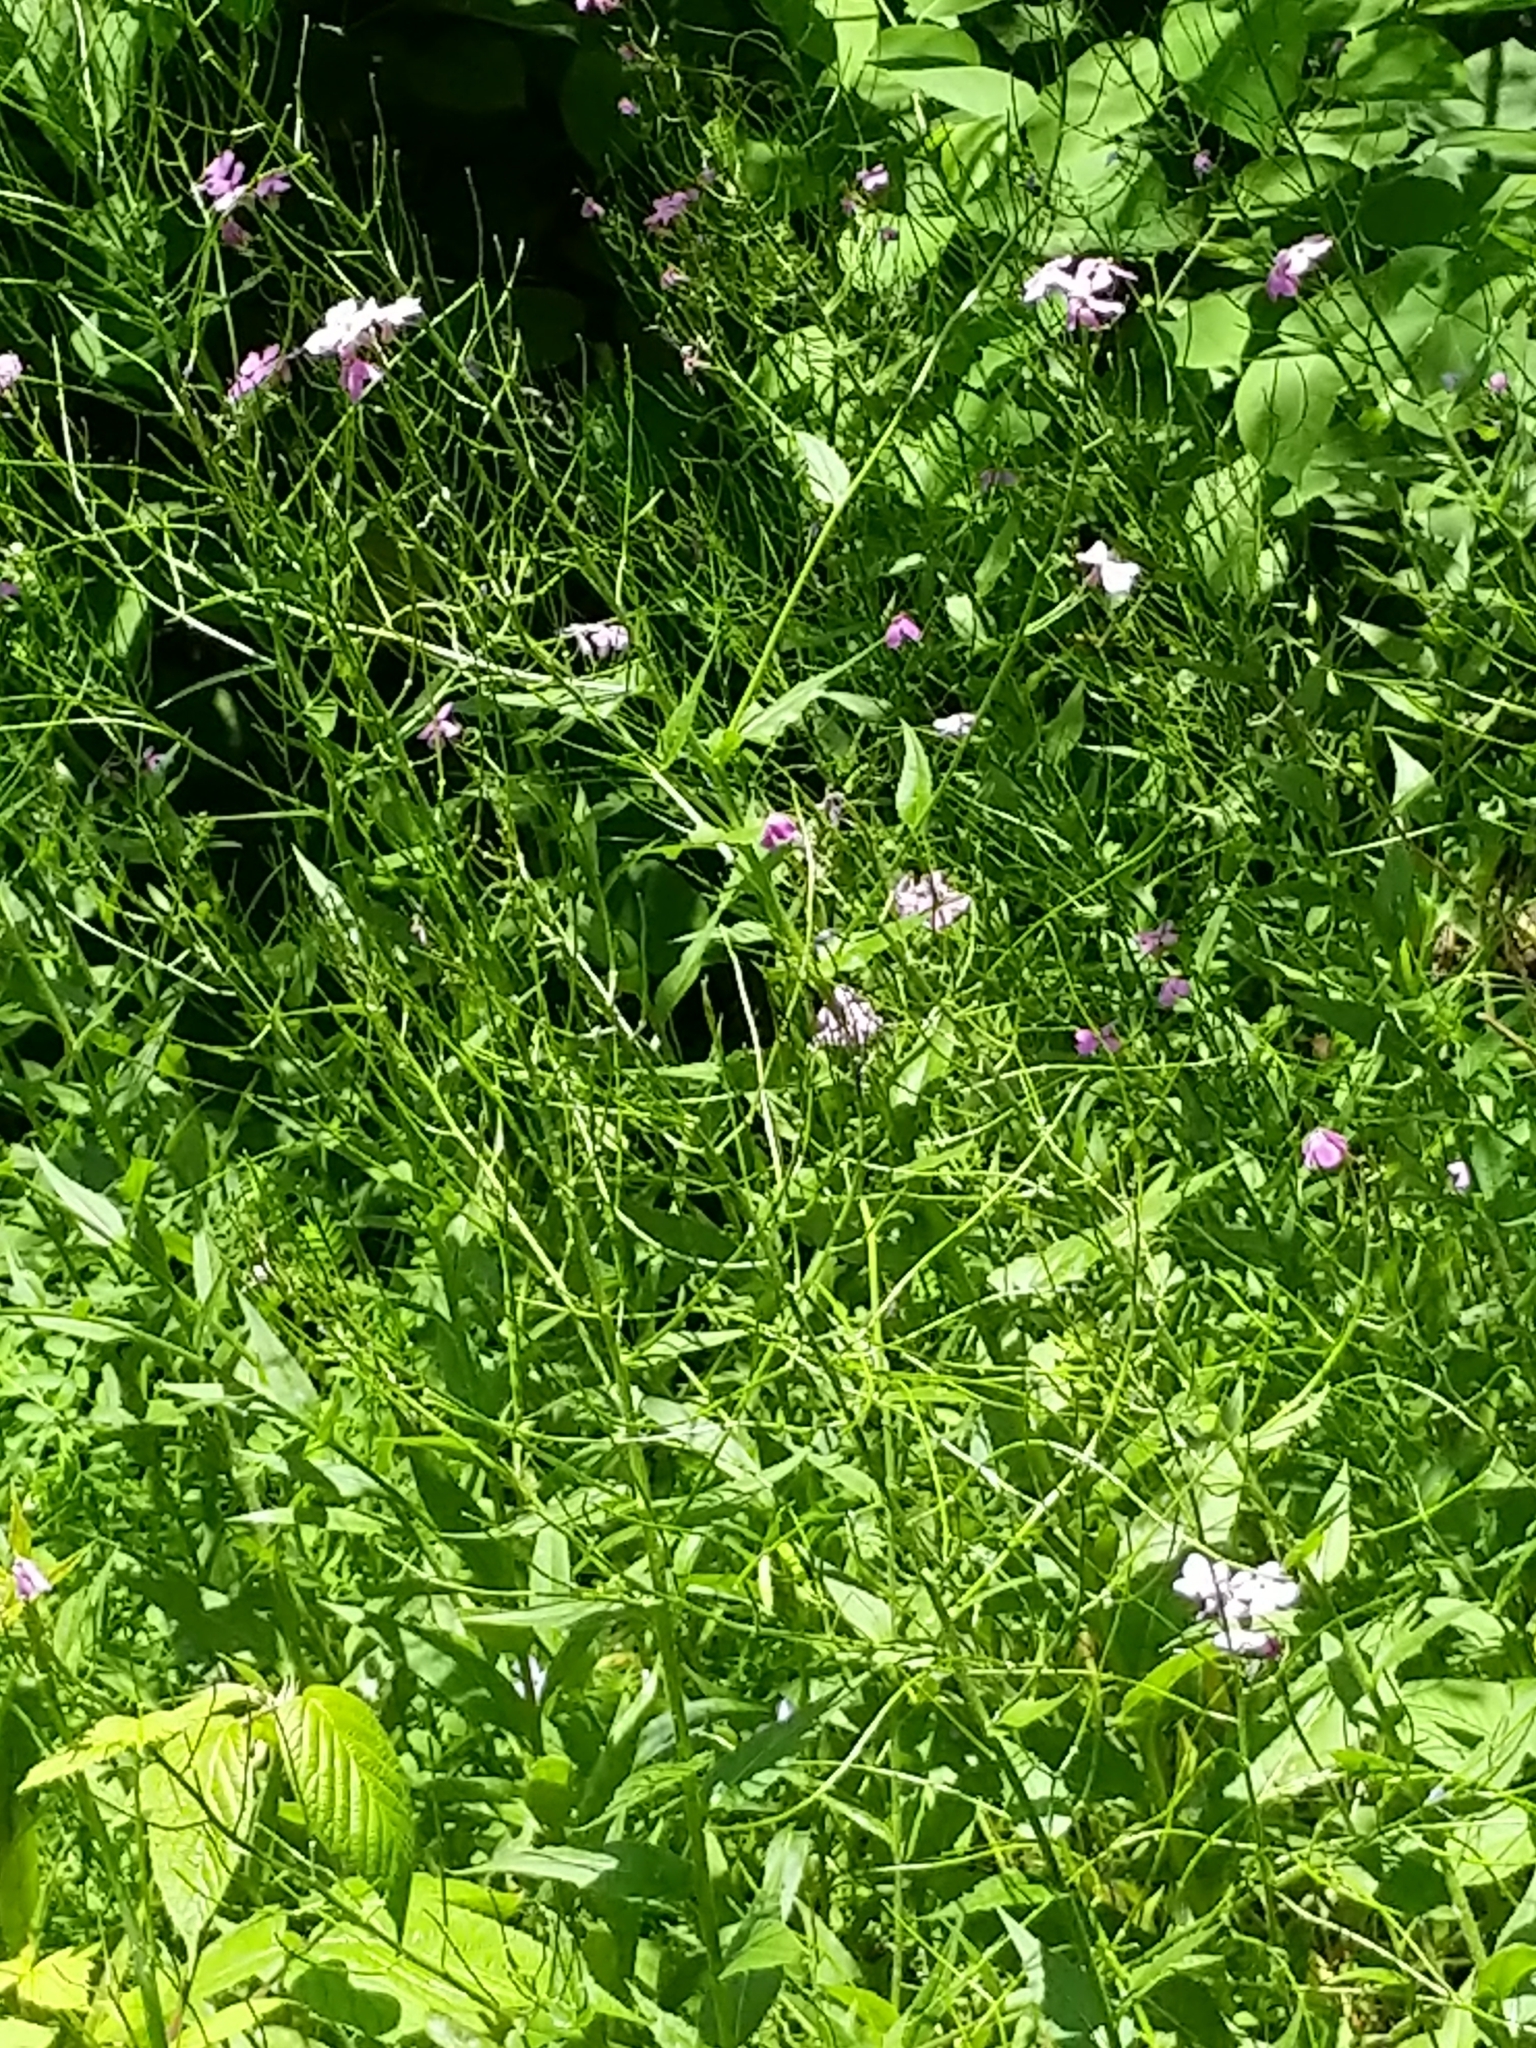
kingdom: Plantae
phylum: Tracheophyta
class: Magnoliopsida
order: Brassicales
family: Brassicaceae
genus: Hesperis
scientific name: Hesperis matronalis
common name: Dame's-violet
